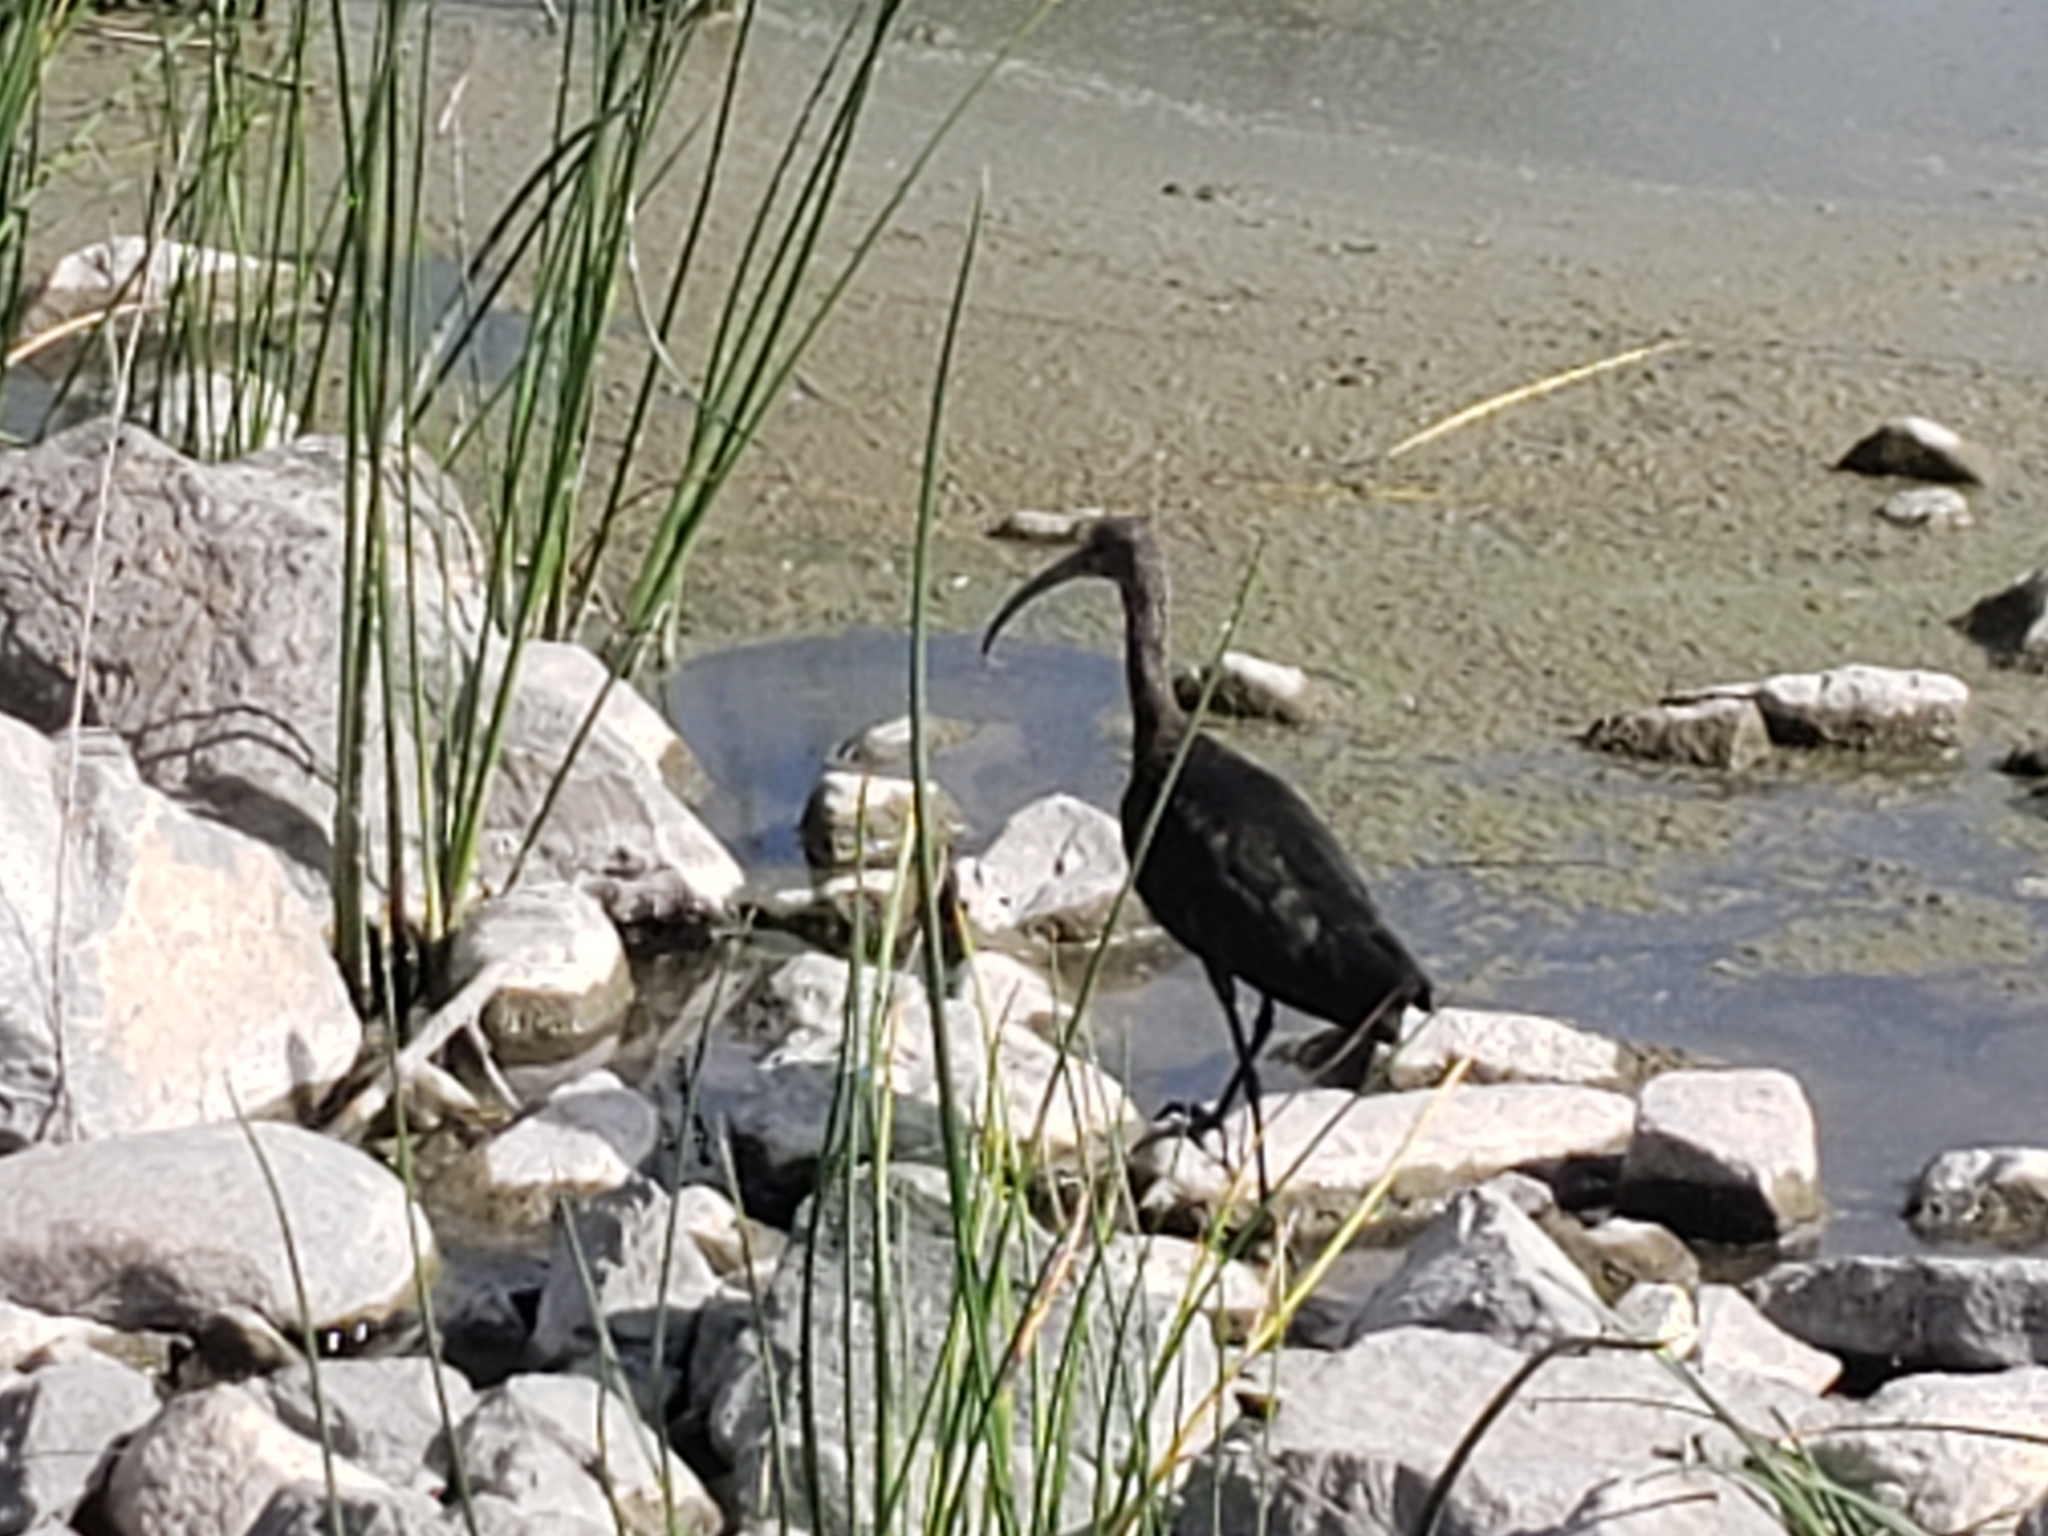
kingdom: Animalia
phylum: Chordata
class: Aves
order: Pelecaniformes
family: Threskiornithidae
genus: Plegadis
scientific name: Plegadis chihi
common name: White-faced ibis
